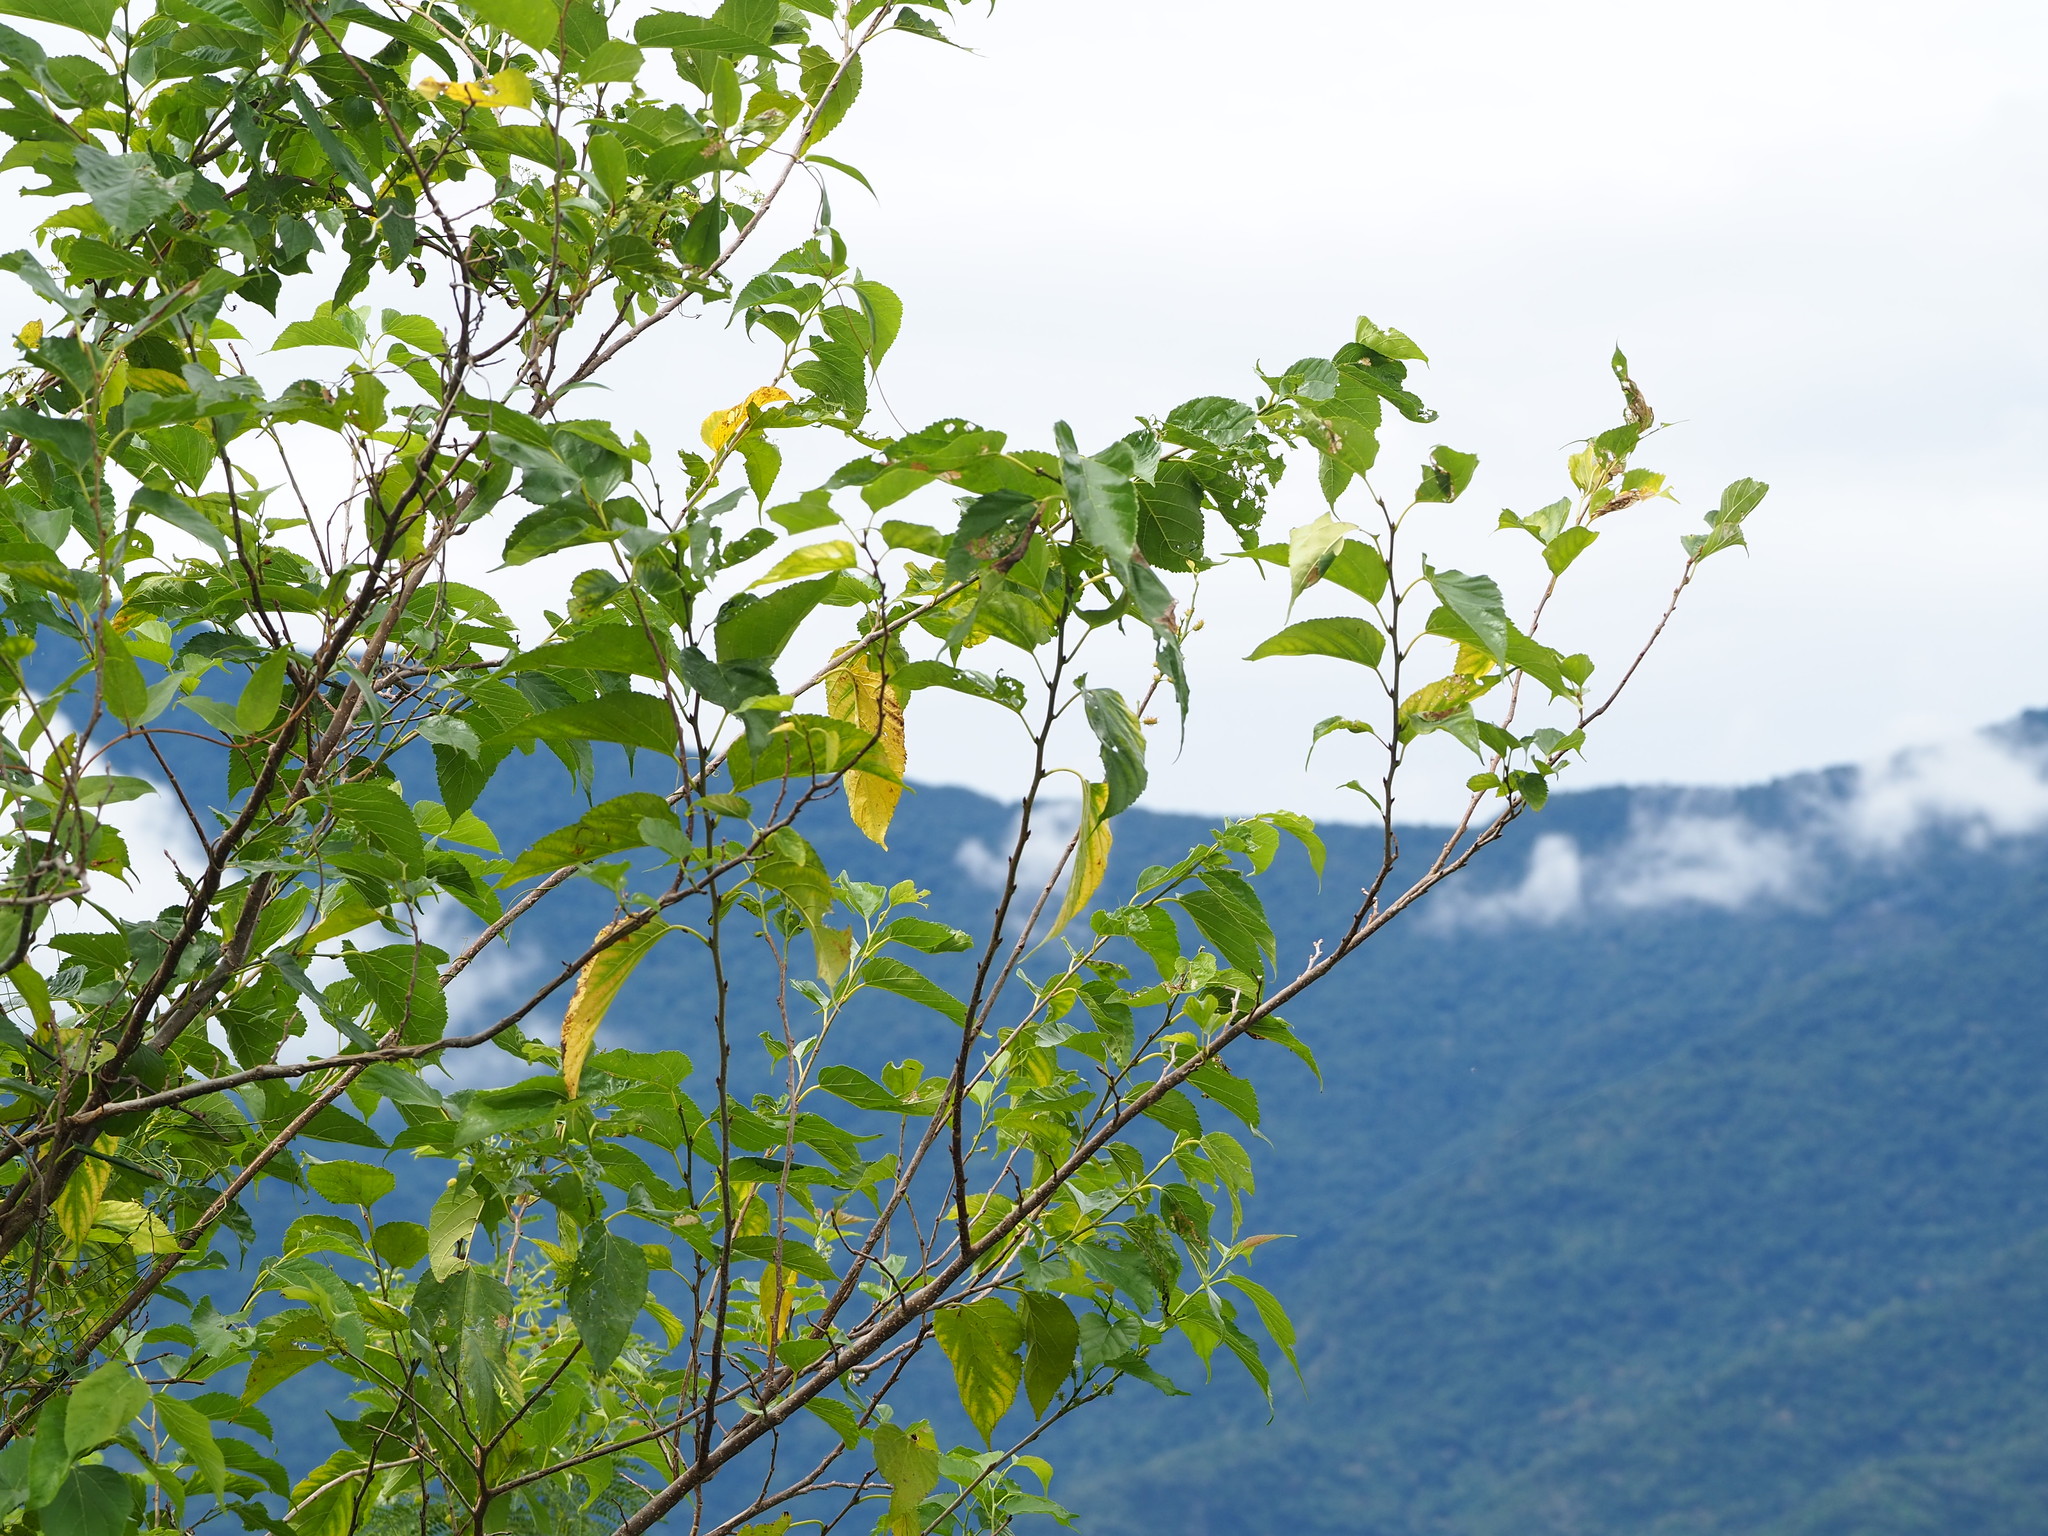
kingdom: Plantae
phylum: Tracheophyta
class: Magnoliopsida
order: Rosales
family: Moraceae
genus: Morus
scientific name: Morus indica
